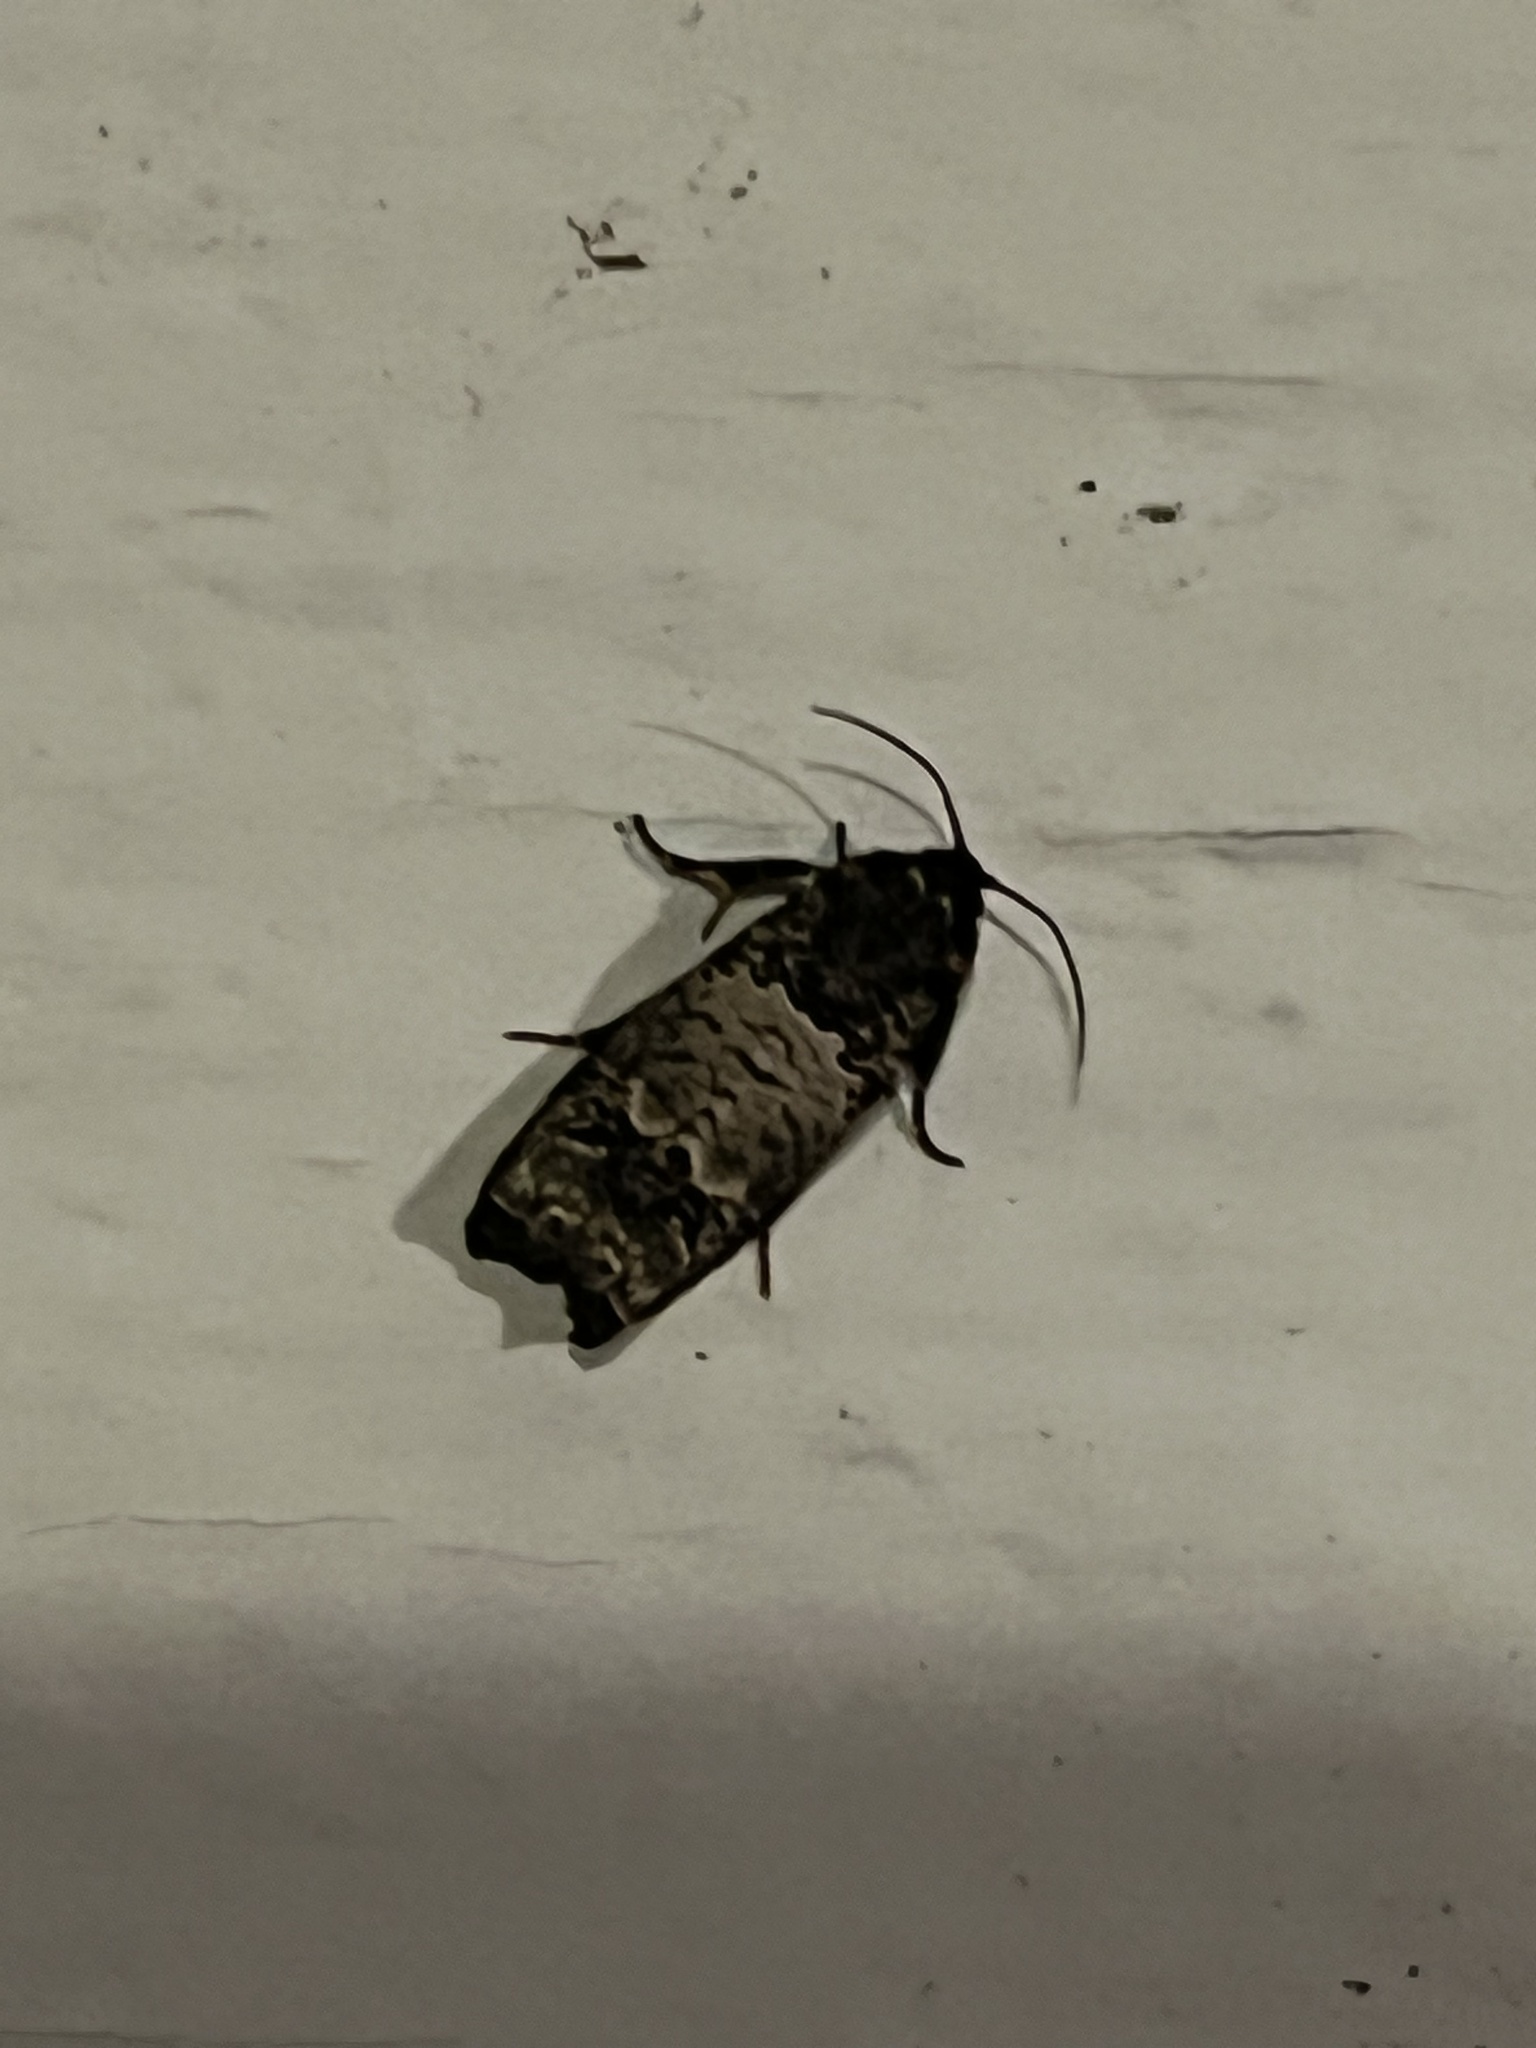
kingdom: Animalia
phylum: Arthropoda
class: Insecta
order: Lepidoptera
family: Tortricidae
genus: Epiblema
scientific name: Epiblema carolinana
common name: Gray-blotched epiblema moth
